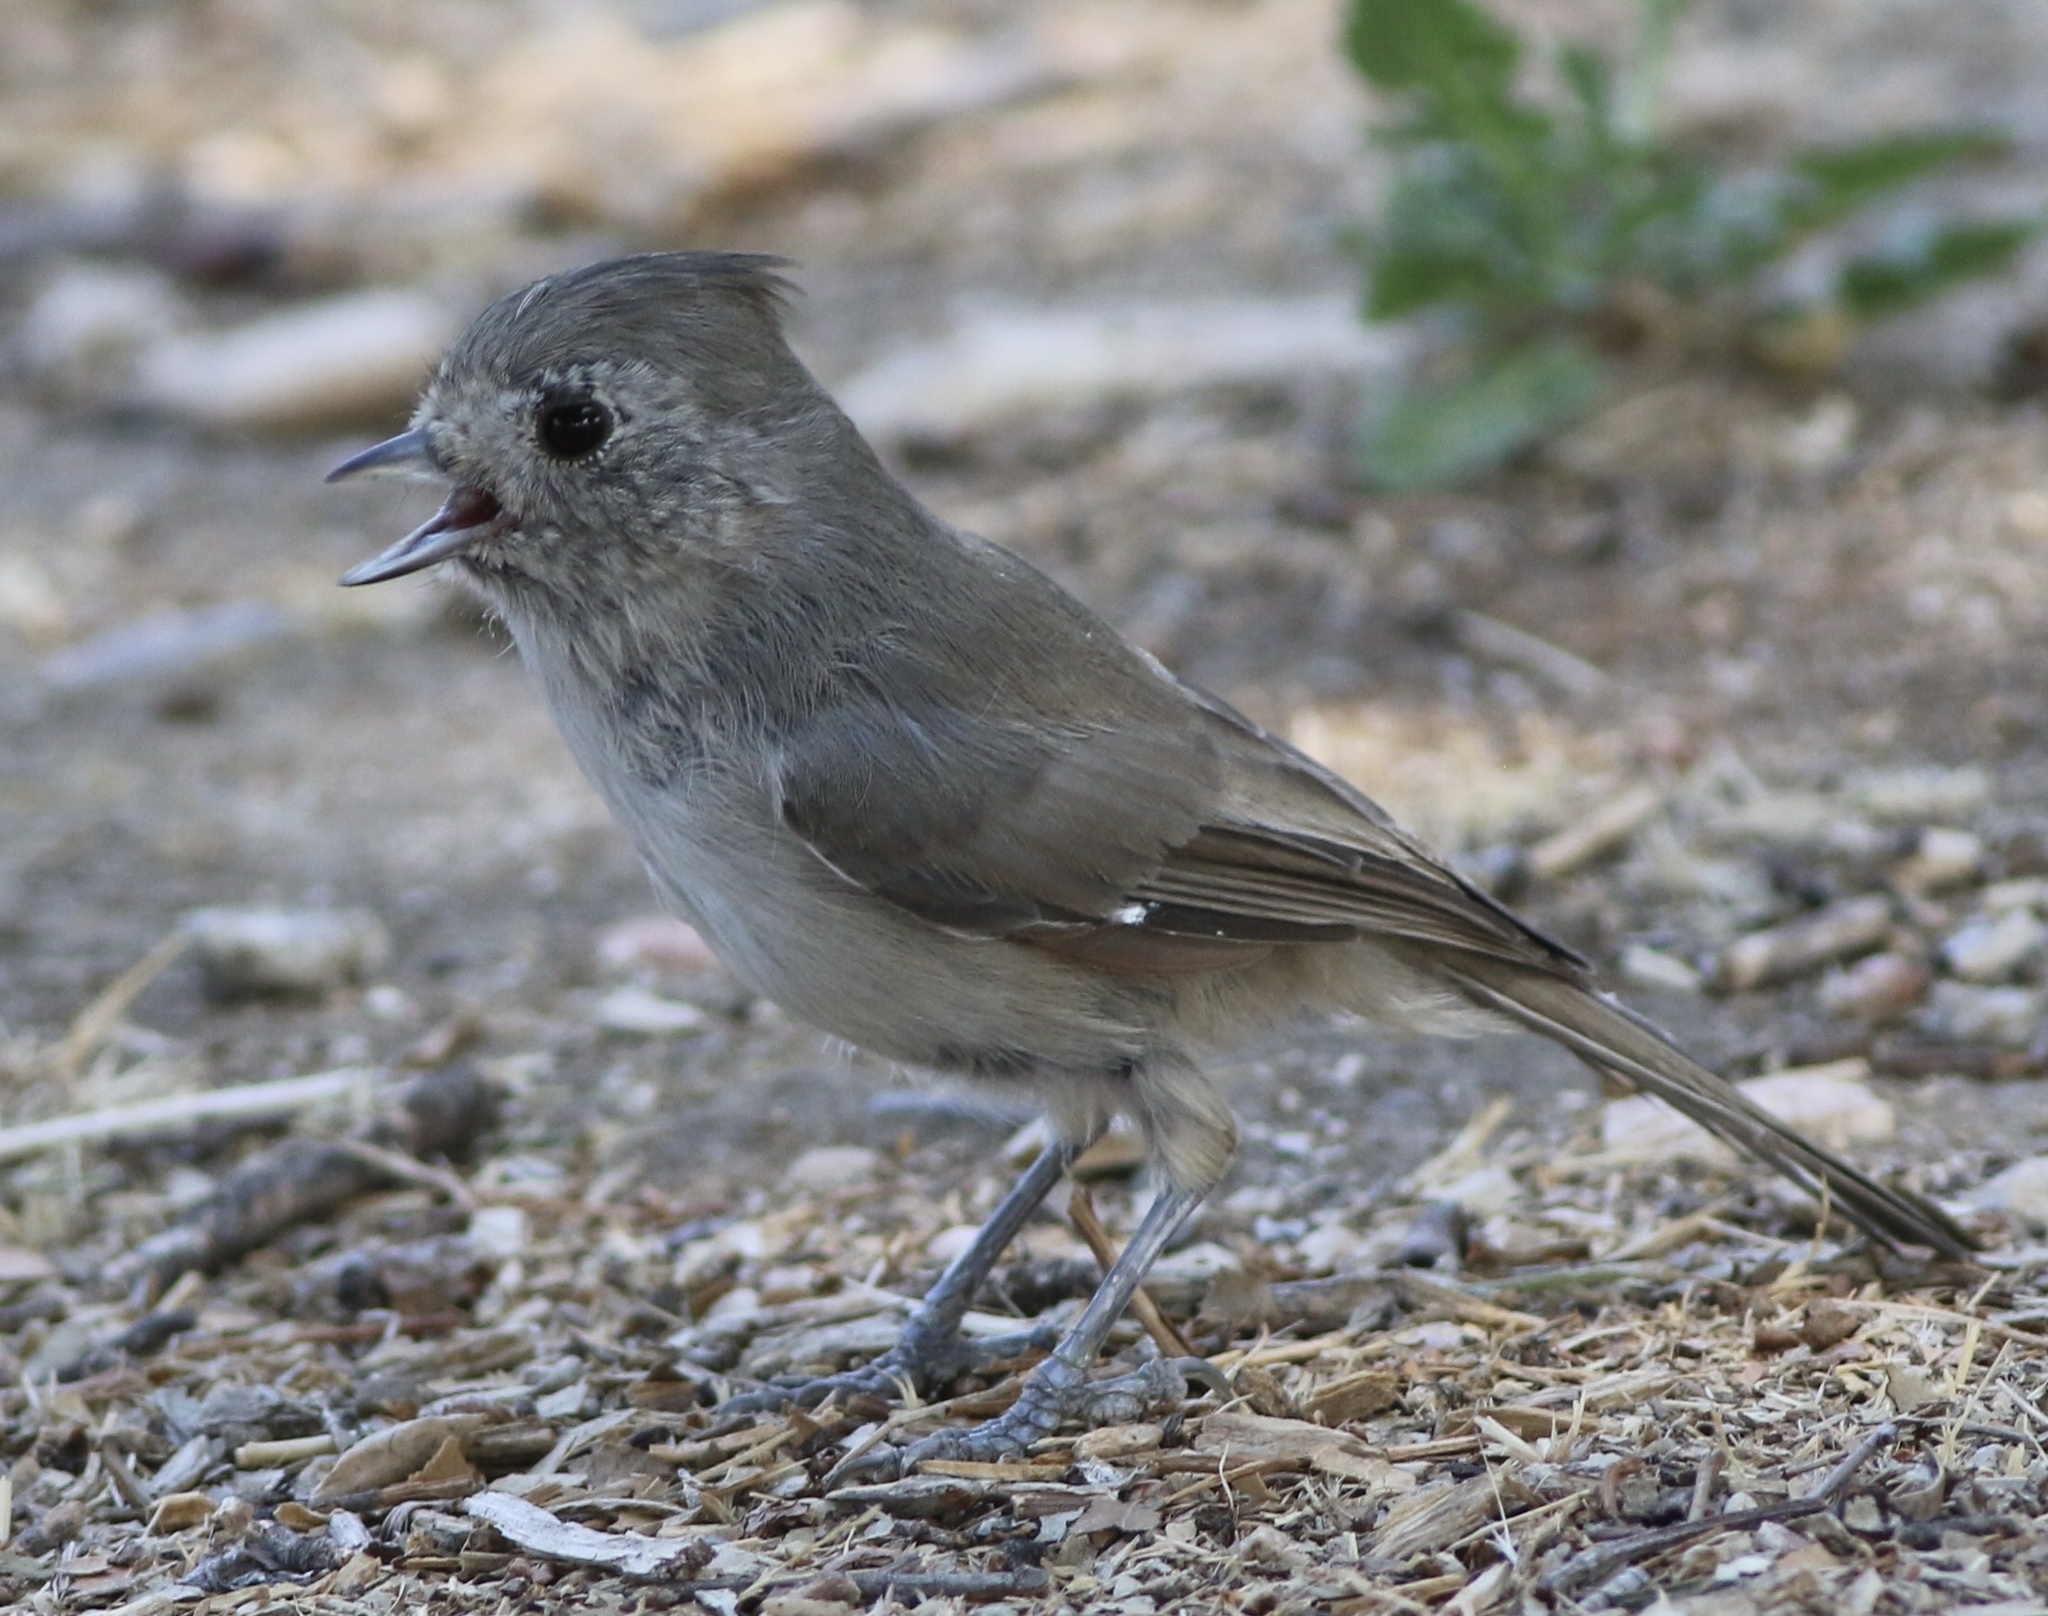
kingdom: Animalia
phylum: Chordata
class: Aves
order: Passeriformes
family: Paridae
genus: Baeolophus
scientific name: Baeolophus inornatus
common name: Oak titmouse
